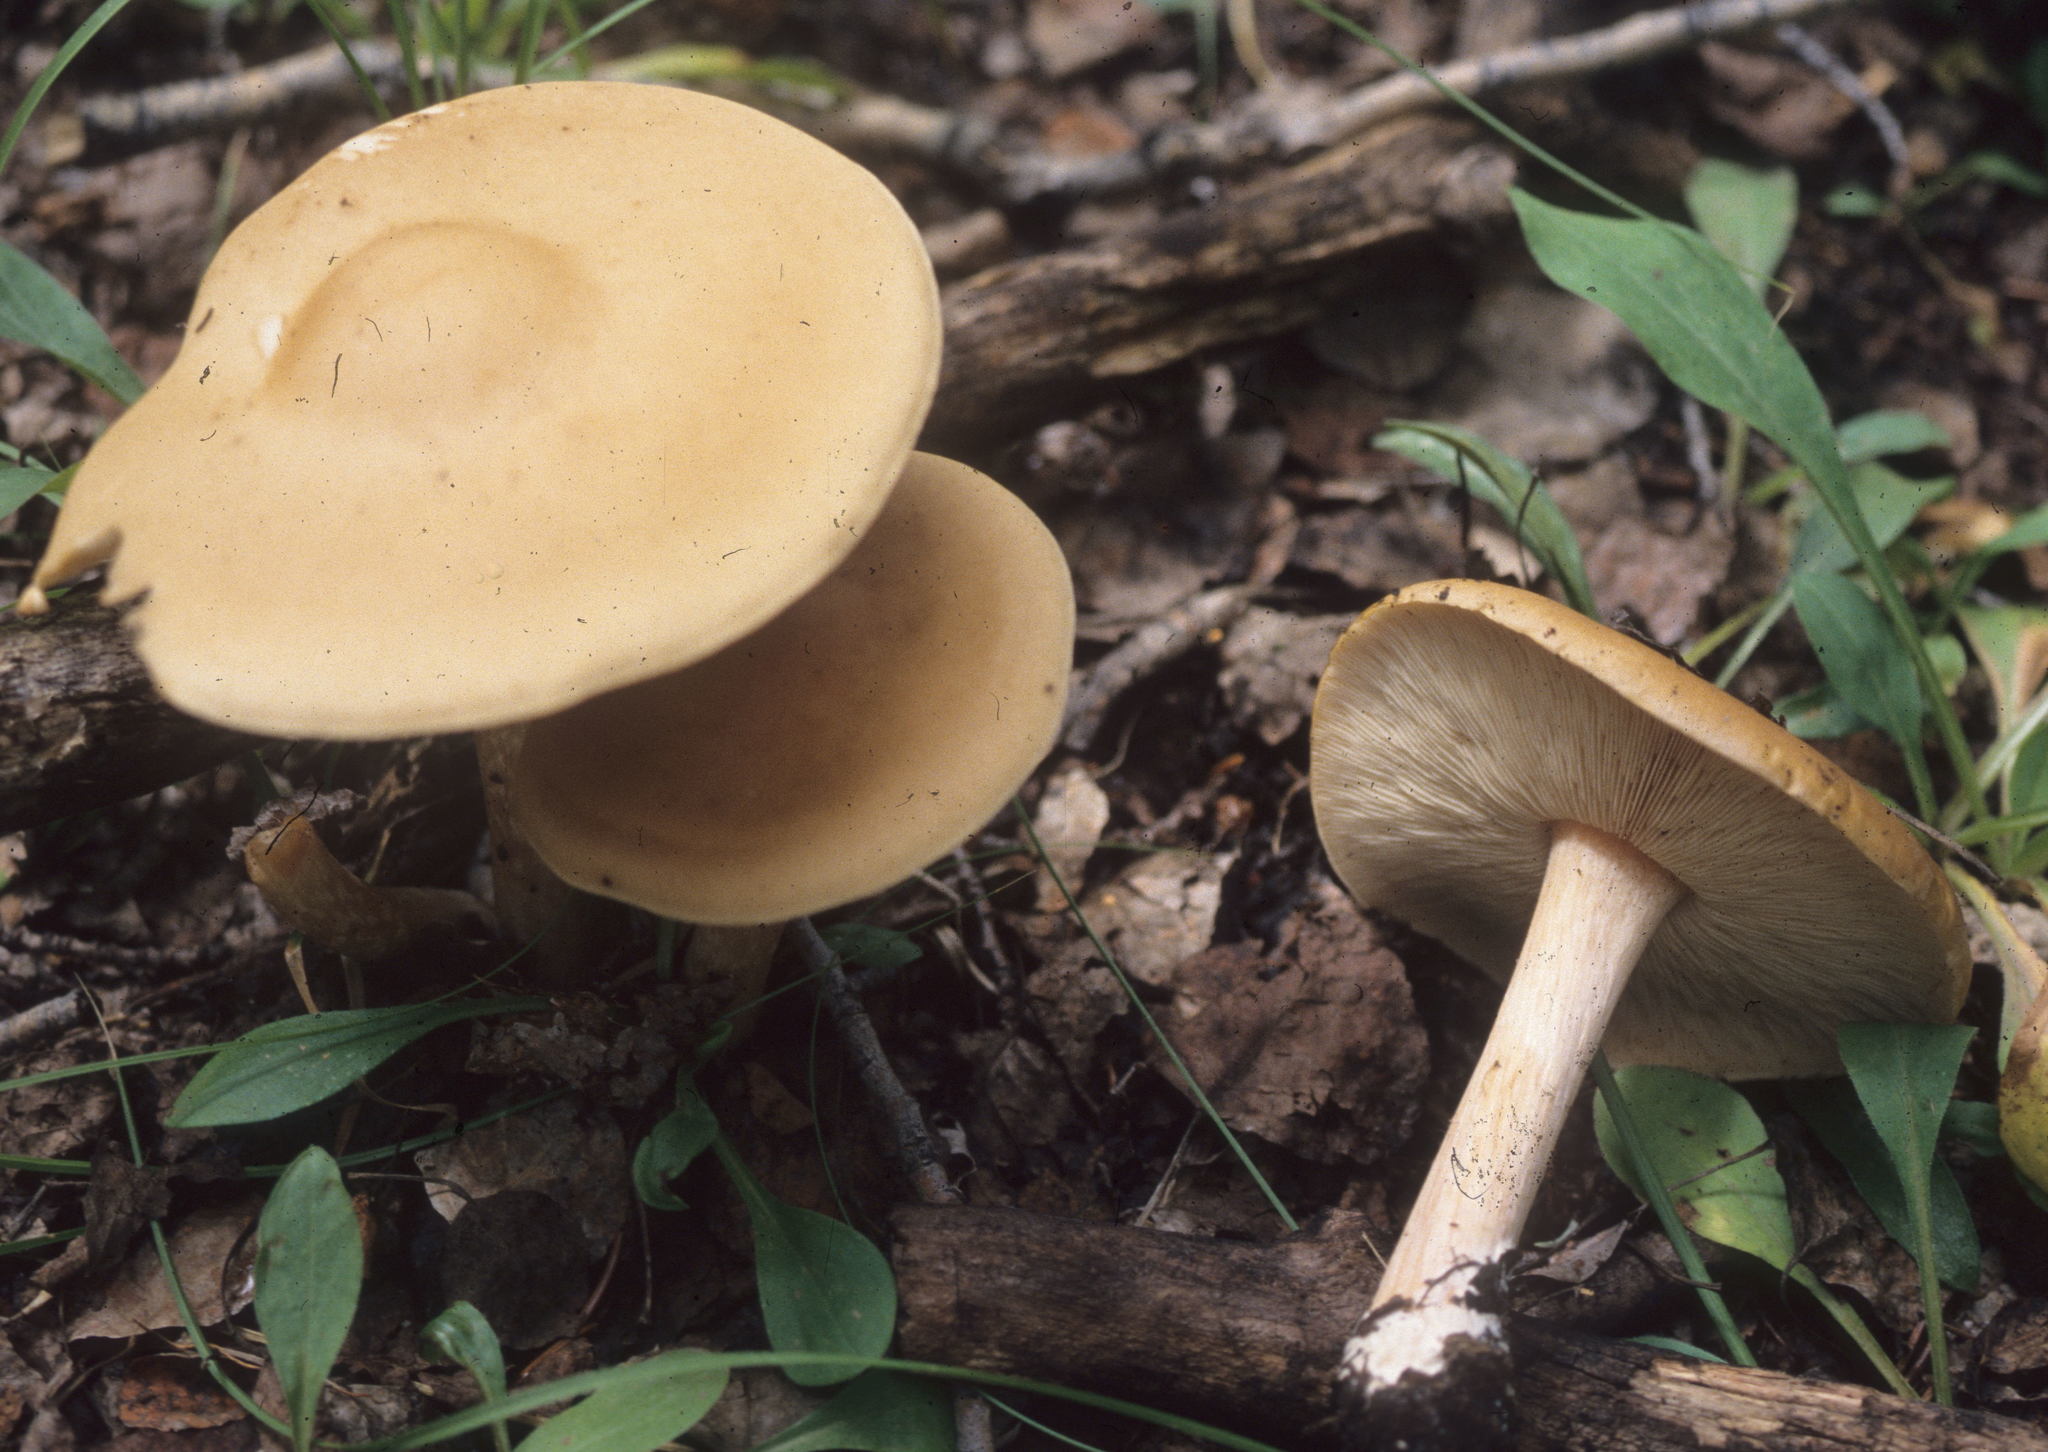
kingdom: Fungi
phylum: Basidiomycota
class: Agaricomycetes
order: Agaricales
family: Tricholomataceae
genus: Melanoleuca
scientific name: Melanoleuca cognata
